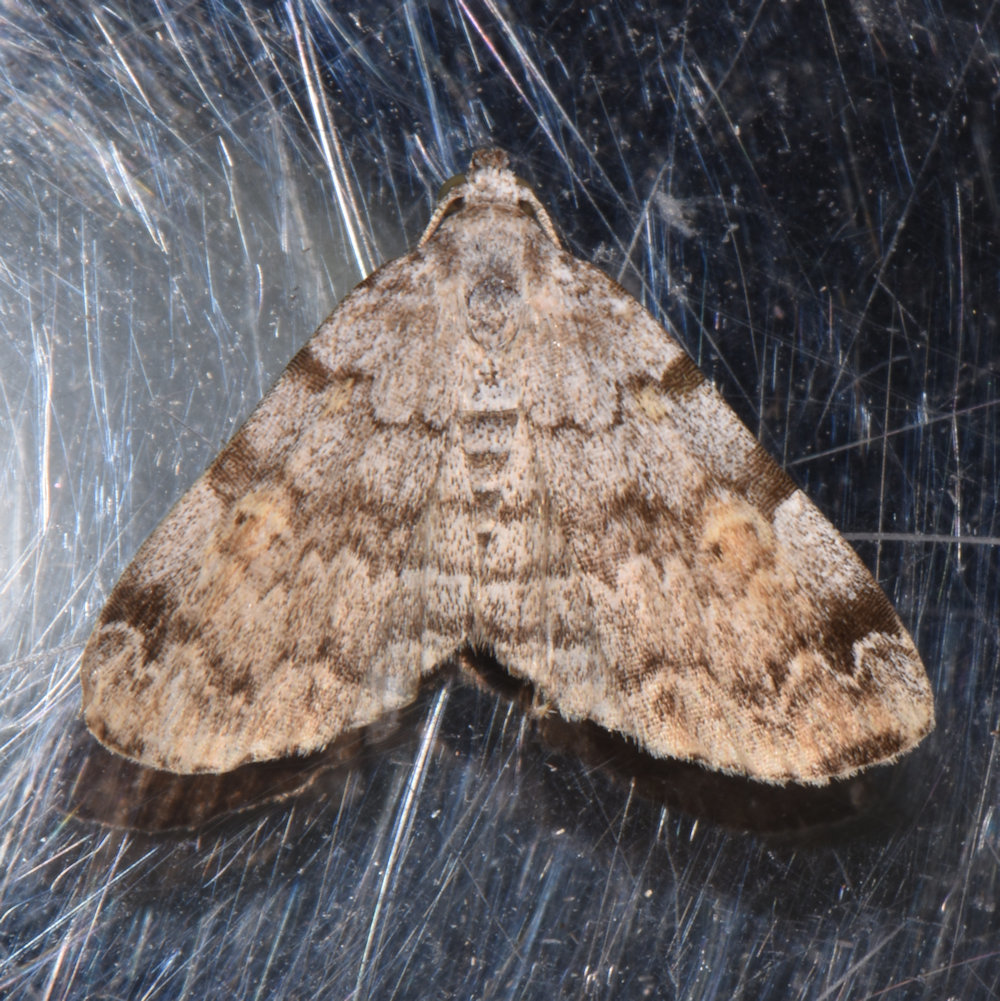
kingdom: Animalia
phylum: Arthropoda
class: Insecta
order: Lepidoptera
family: Erebidae
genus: Idia
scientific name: Idia americalis
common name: American idia moth
